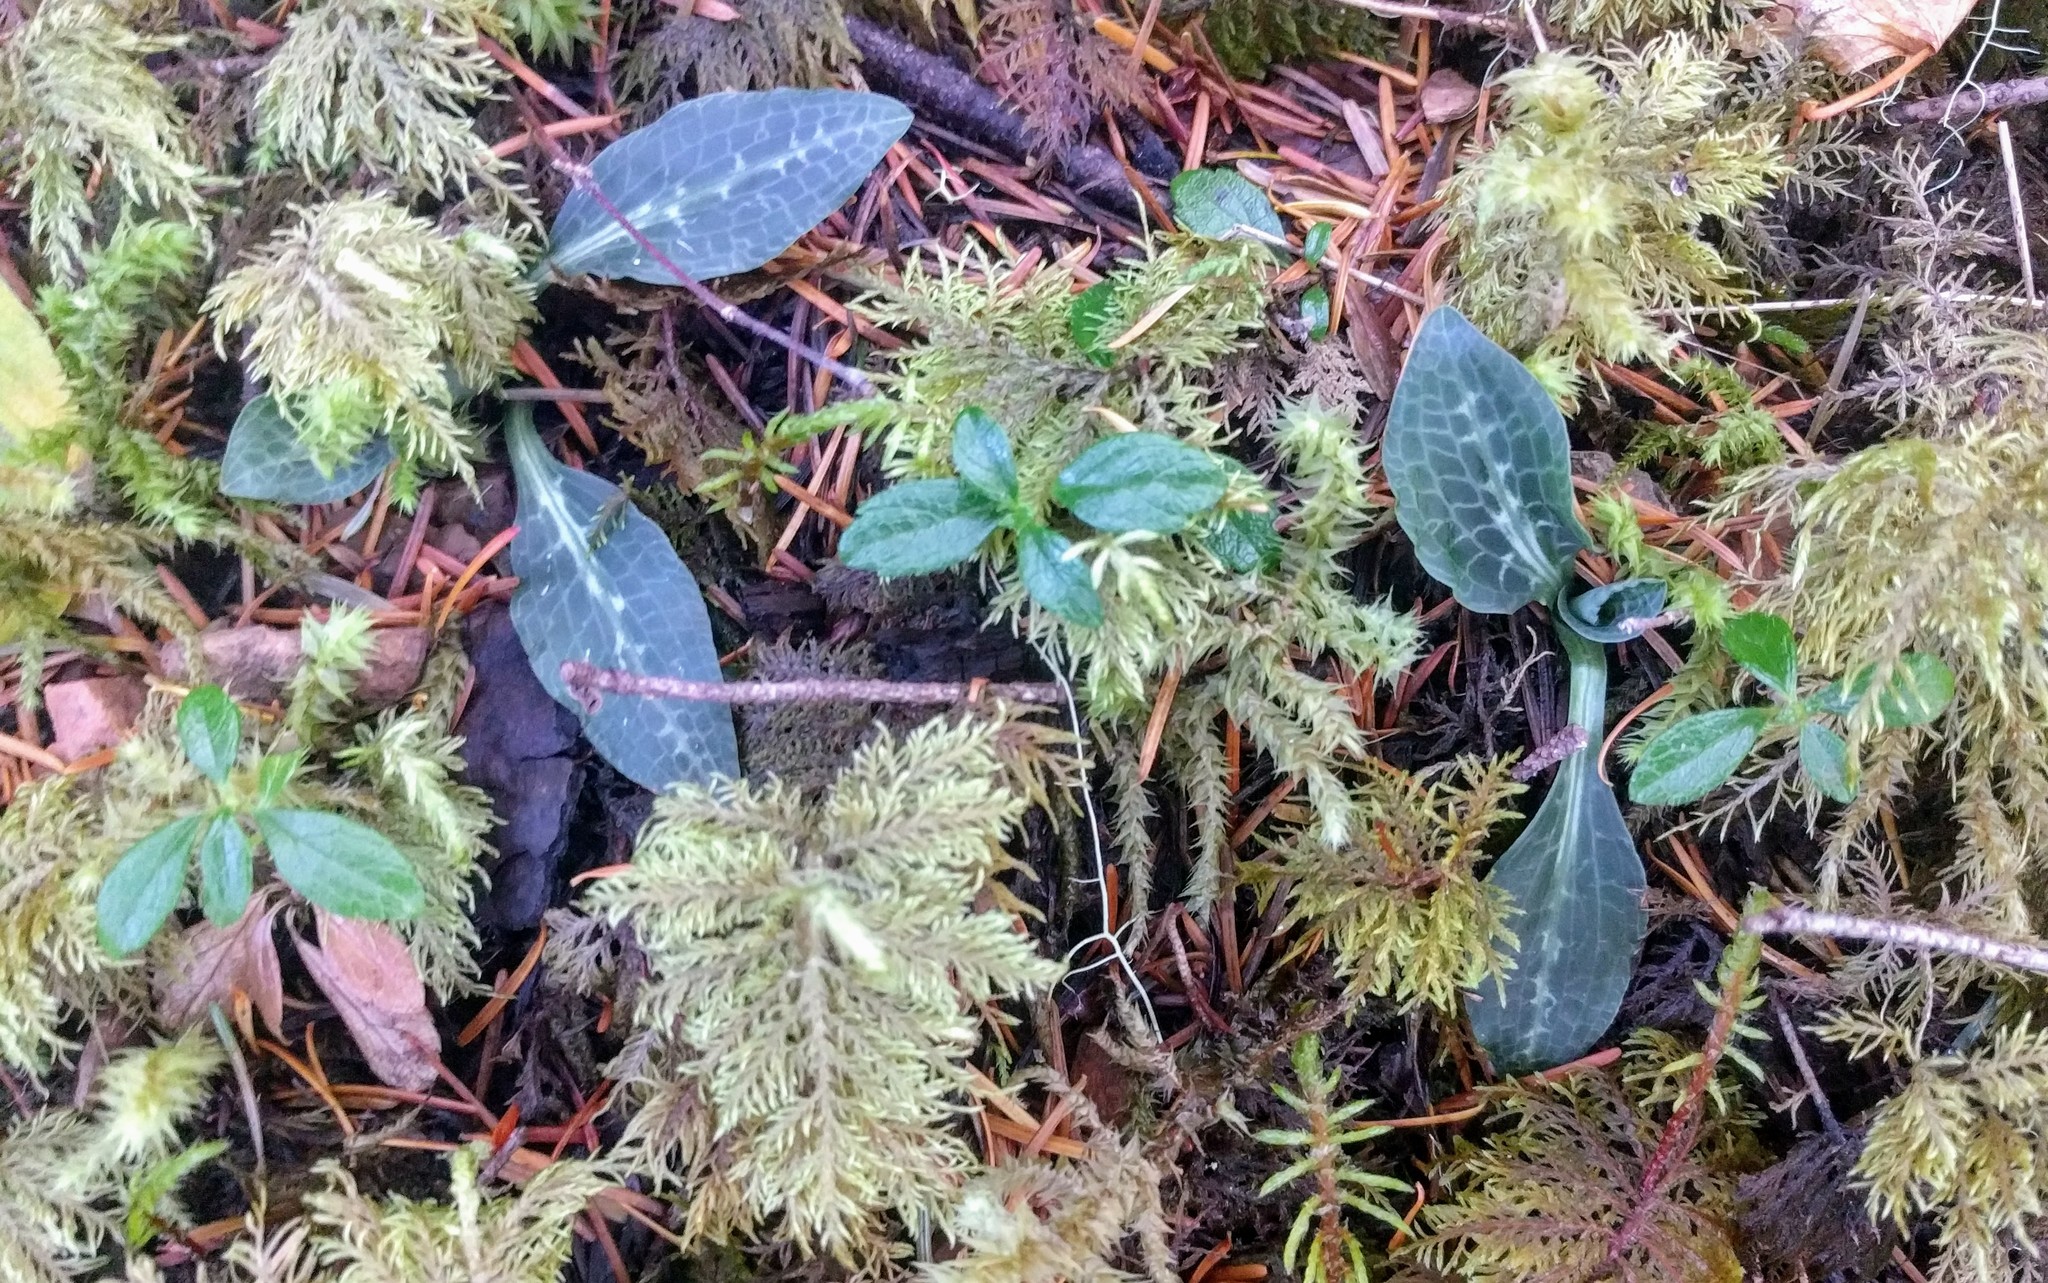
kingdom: Plantae
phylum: Tracheophyta
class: Liliopsida
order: Asparagales
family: Orchidaceae
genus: Goodyera
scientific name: Goodyera oblongifolia
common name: Giant rattlesnake-plantain
